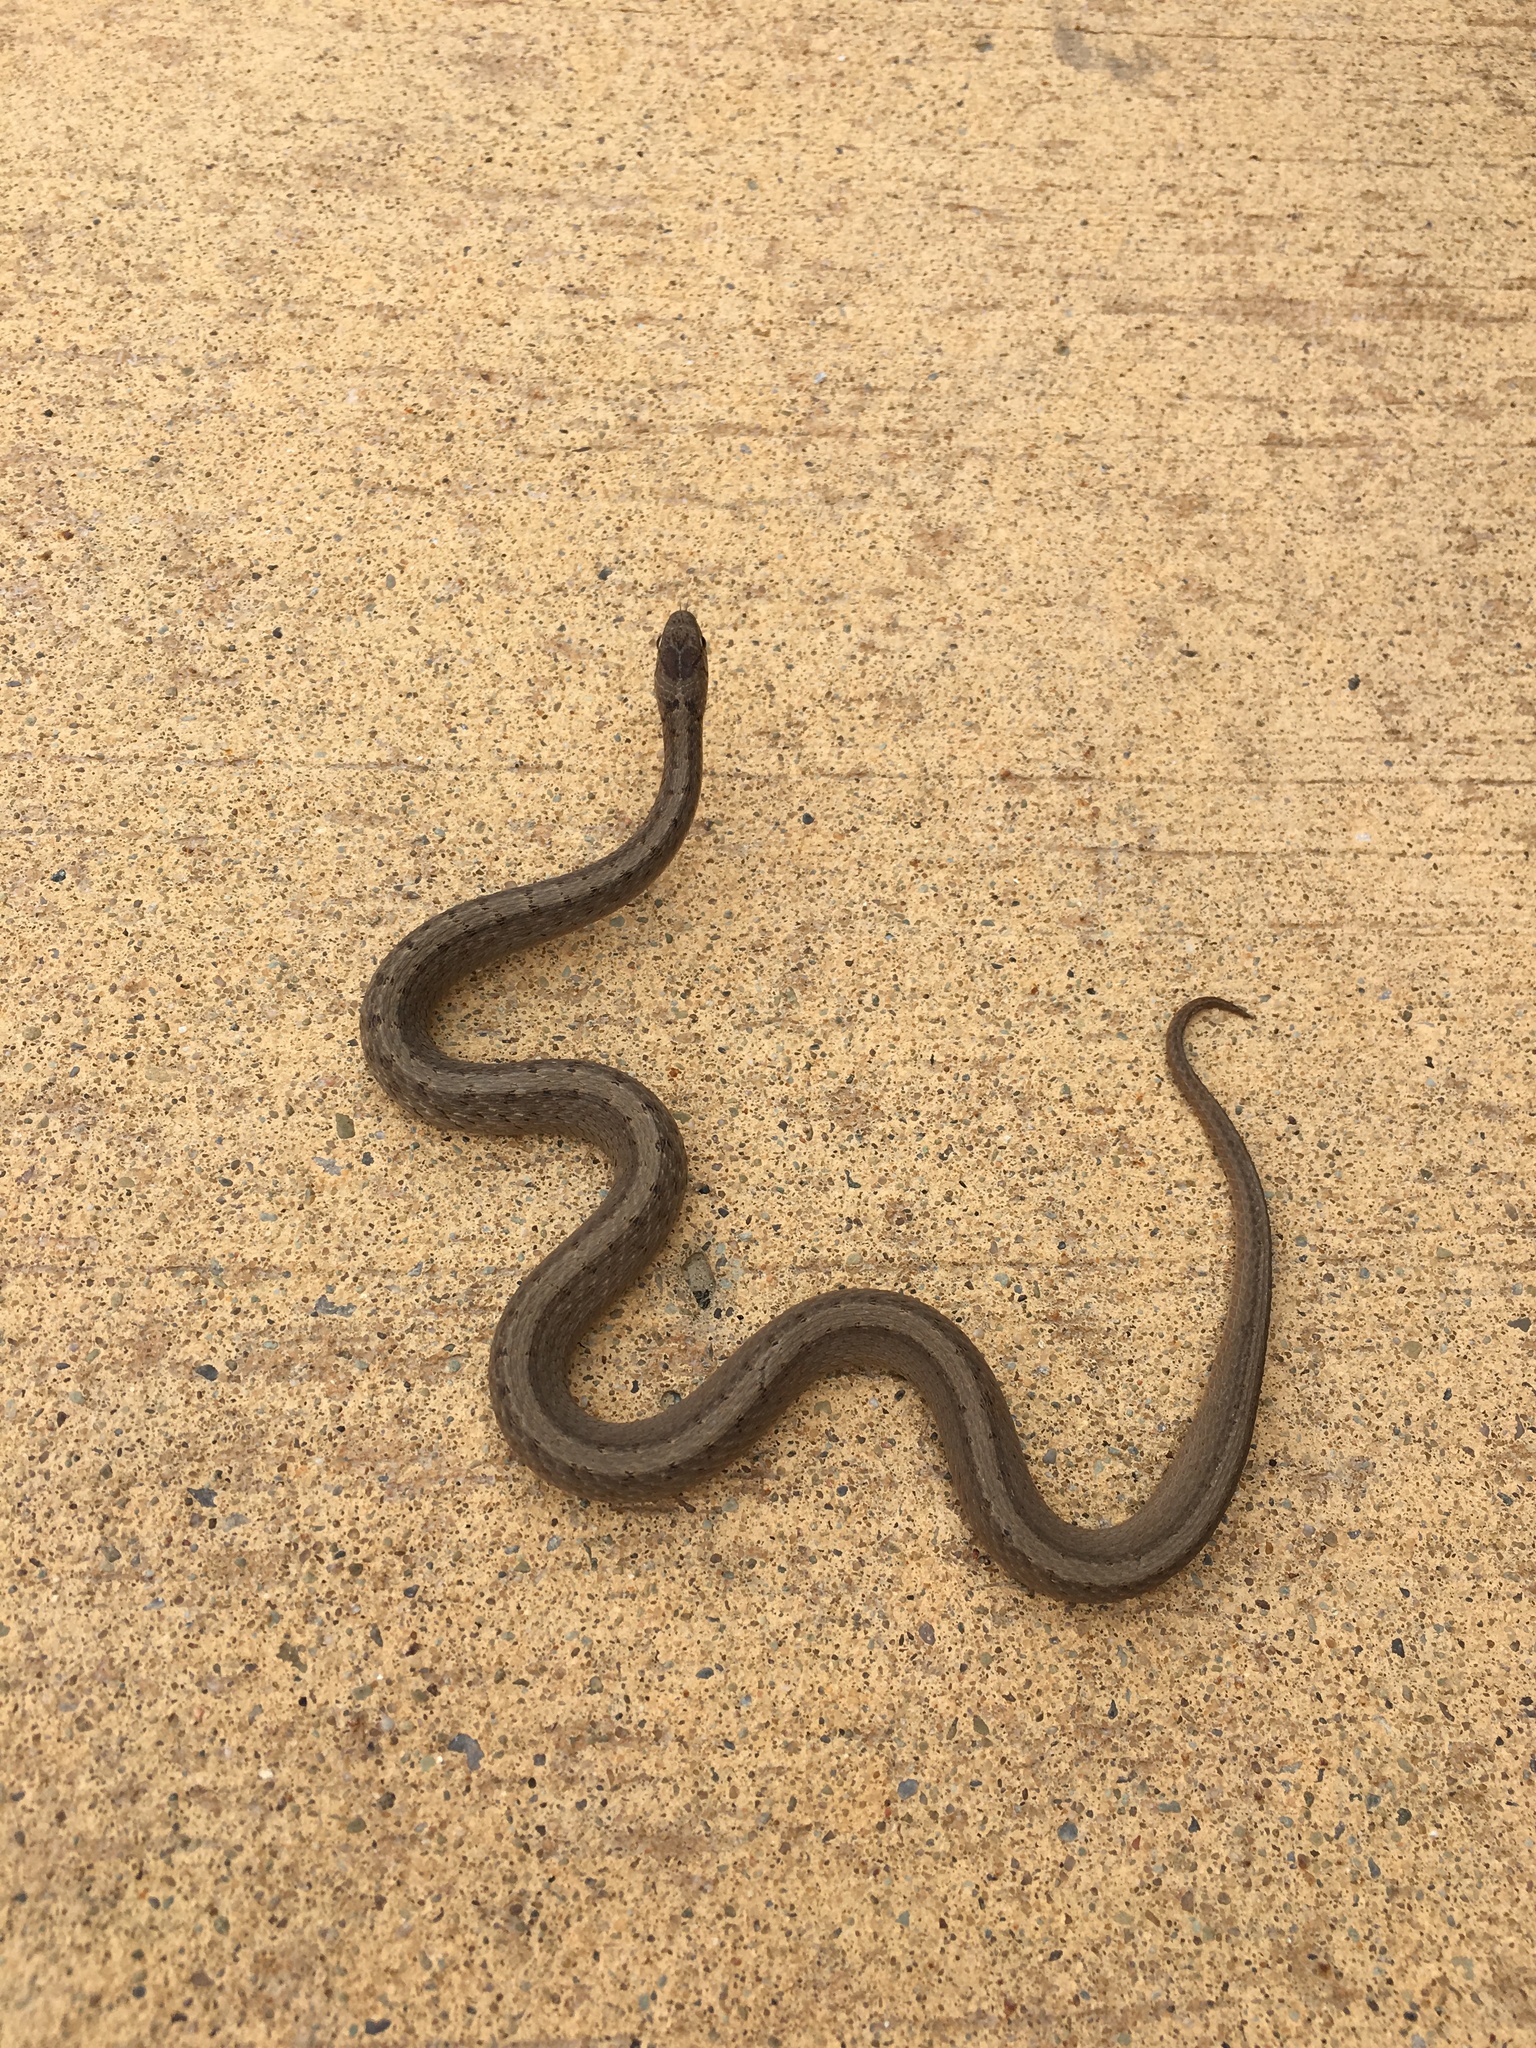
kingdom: Animalia
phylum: Chordata
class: Squamata
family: Colubridae
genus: Storeria
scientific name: Storeria dekayi
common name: (dekay’s) brown snake
